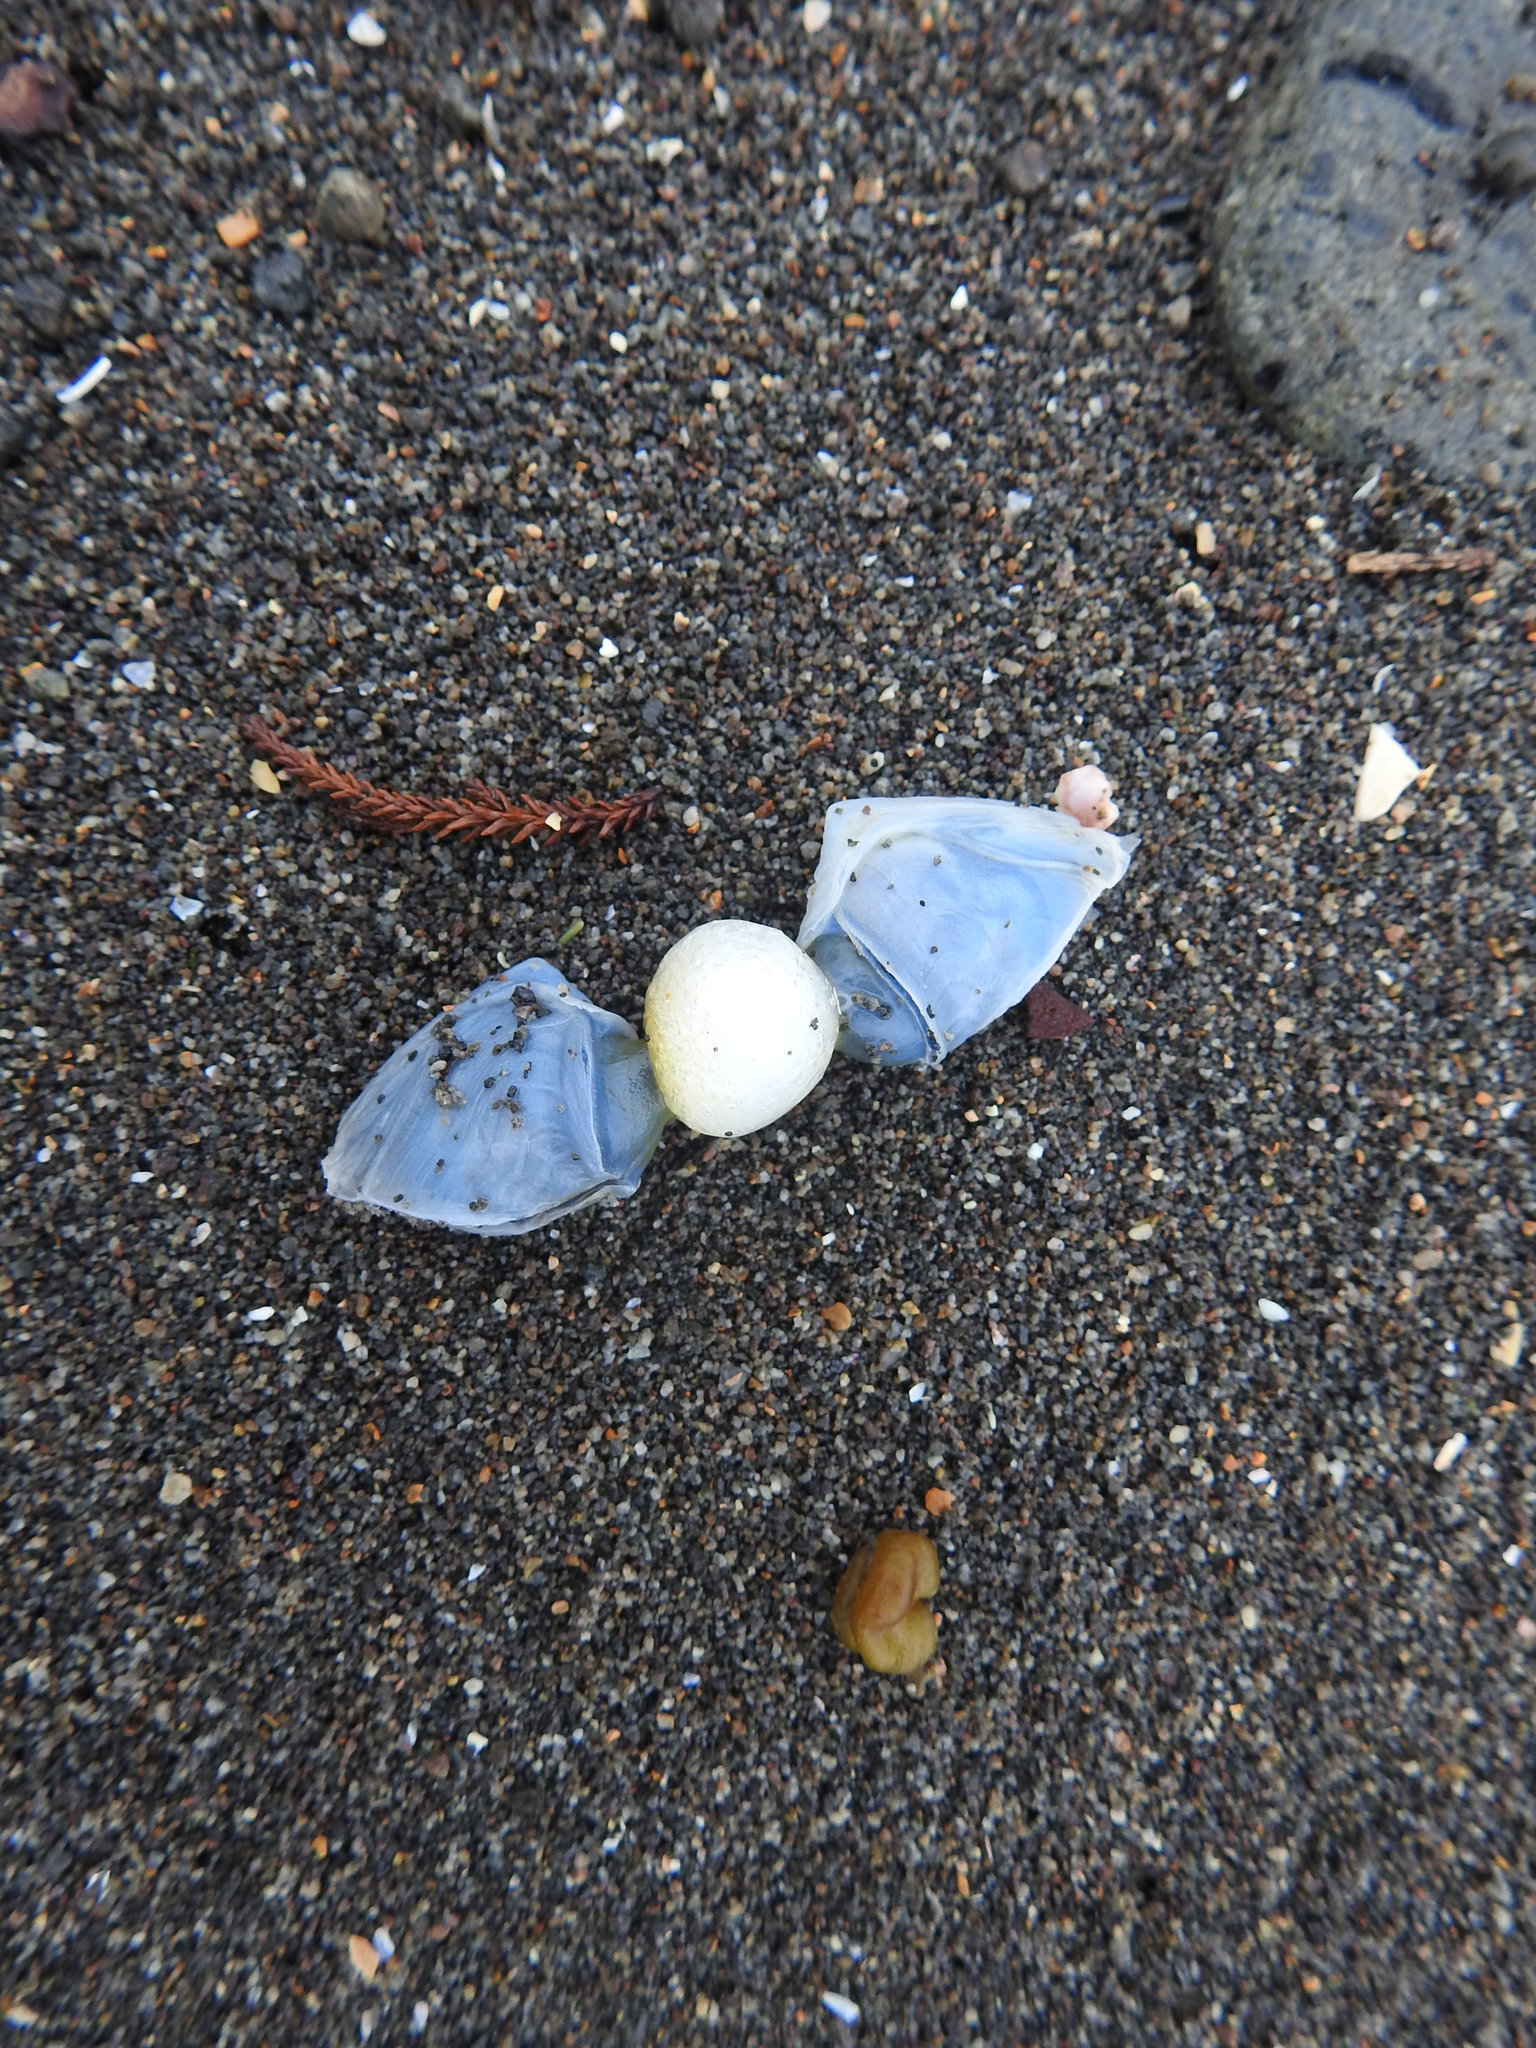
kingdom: Animalia
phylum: Arthropoda
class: Maxillopoda
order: Pedunculata
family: Lepadidae
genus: Dosima
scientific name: Dosima fascicularis
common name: Buoy barnacle
